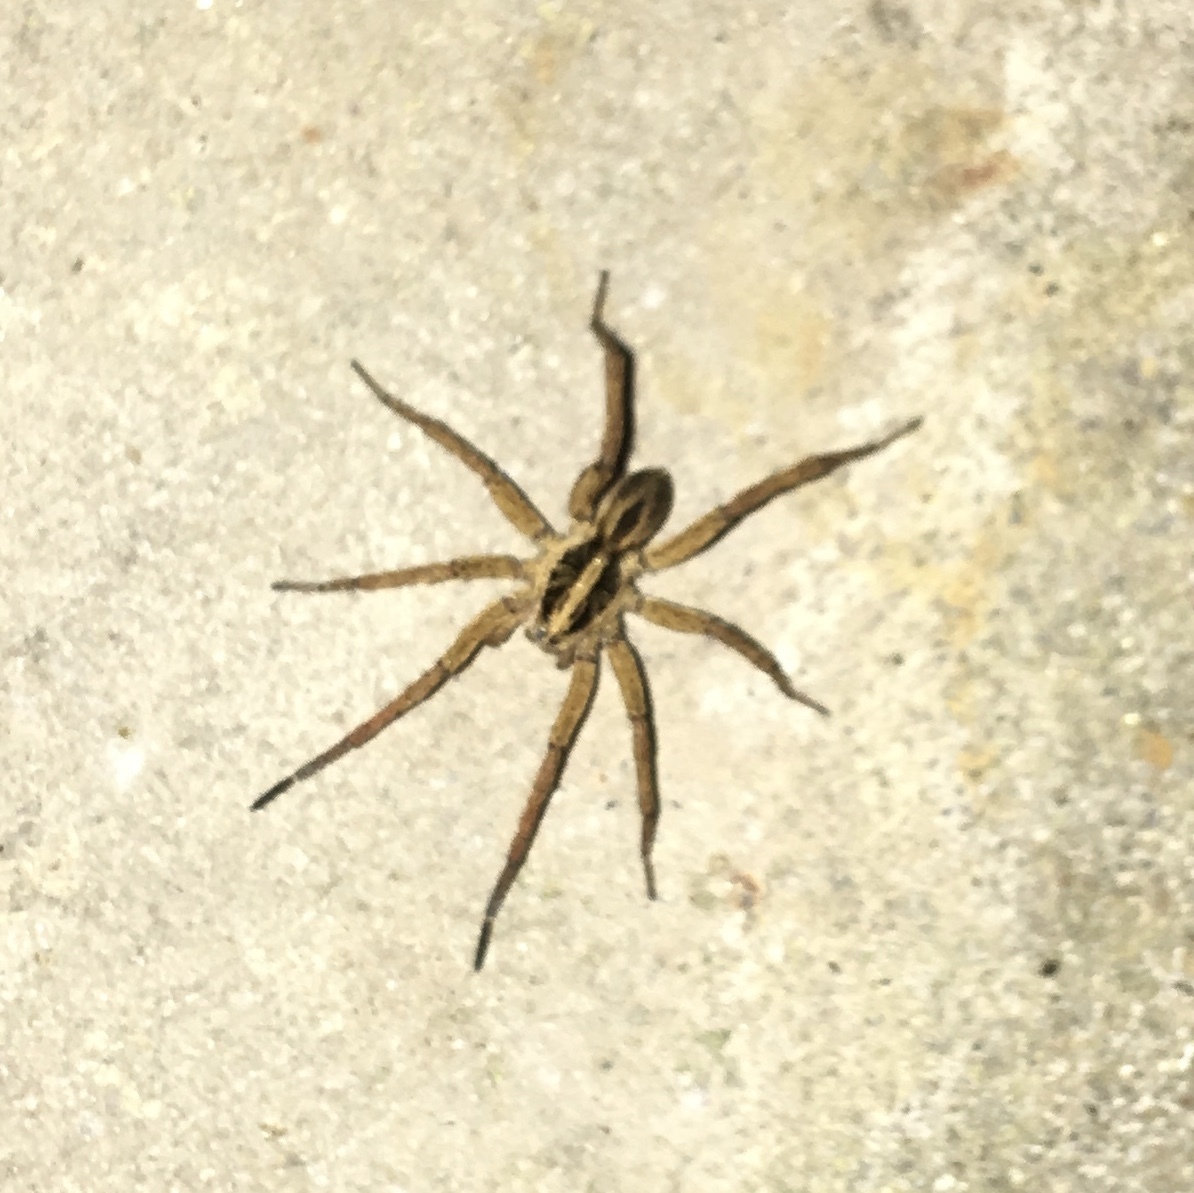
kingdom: Animalia
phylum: Arthropoda
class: Arachnida
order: Araneae
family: Lycosidae
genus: Tigrosa
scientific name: Tigrosa annexa
